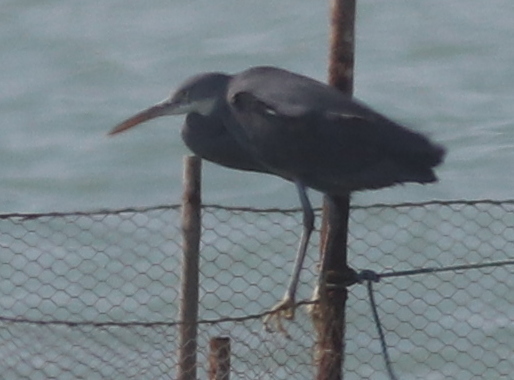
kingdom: Animalia
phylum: Chordata
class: Aves
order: Pelecaniformes
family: Ardeidae
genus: Egretta
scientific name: Egretta gularis
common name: Western reef-heron
